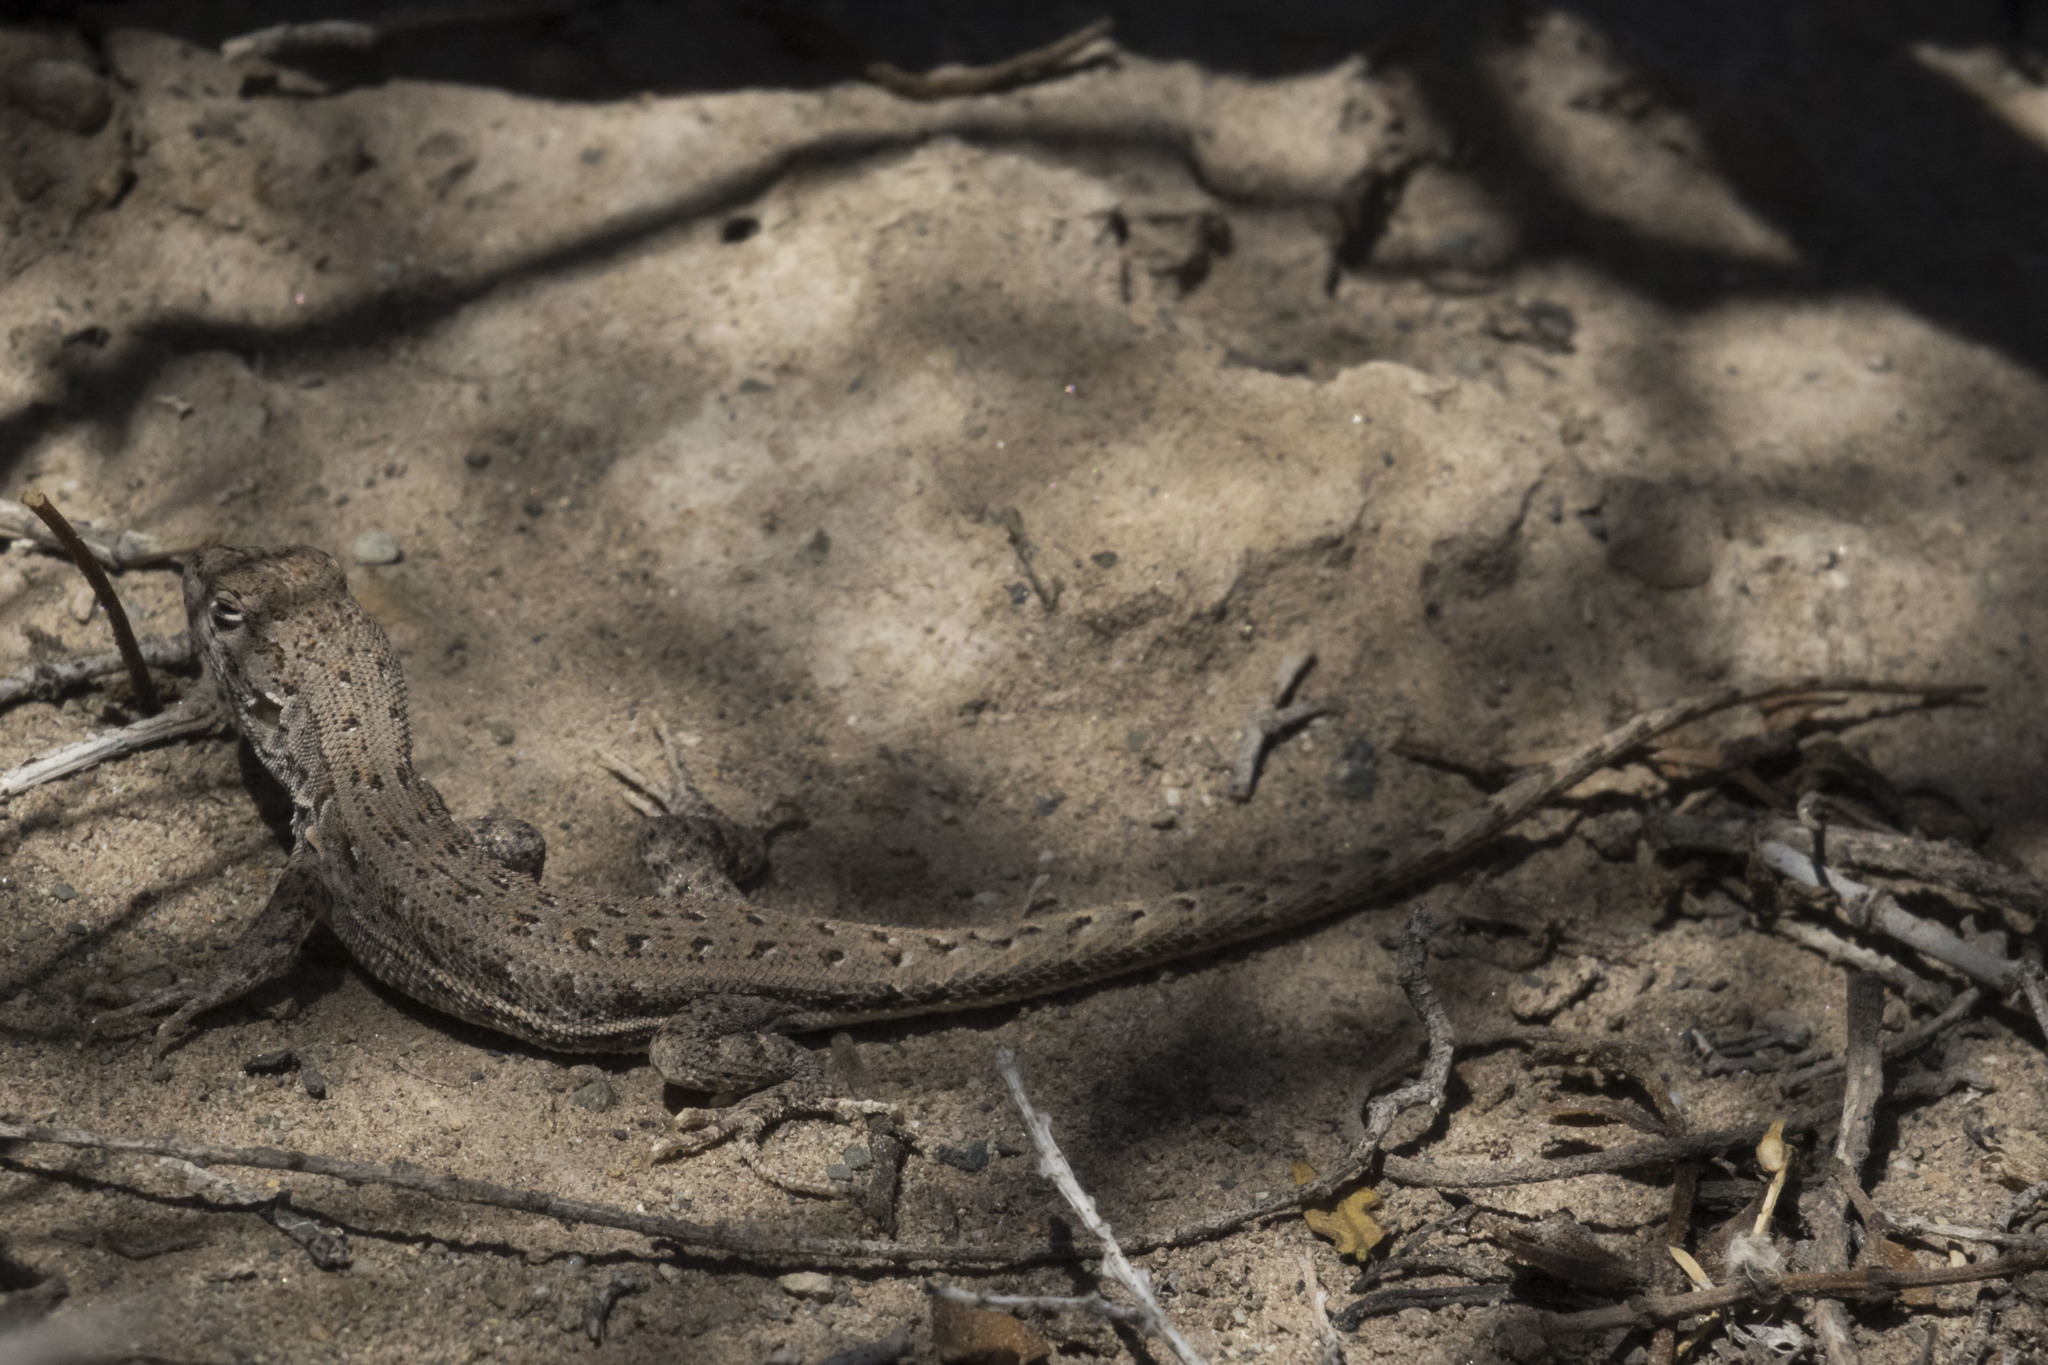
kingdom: Animalia
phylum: Chordata
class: Squamata
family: Liolaemidae
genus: Liolaemus
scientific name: Liolaemus darwinii
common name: Darwin's tree iguana
